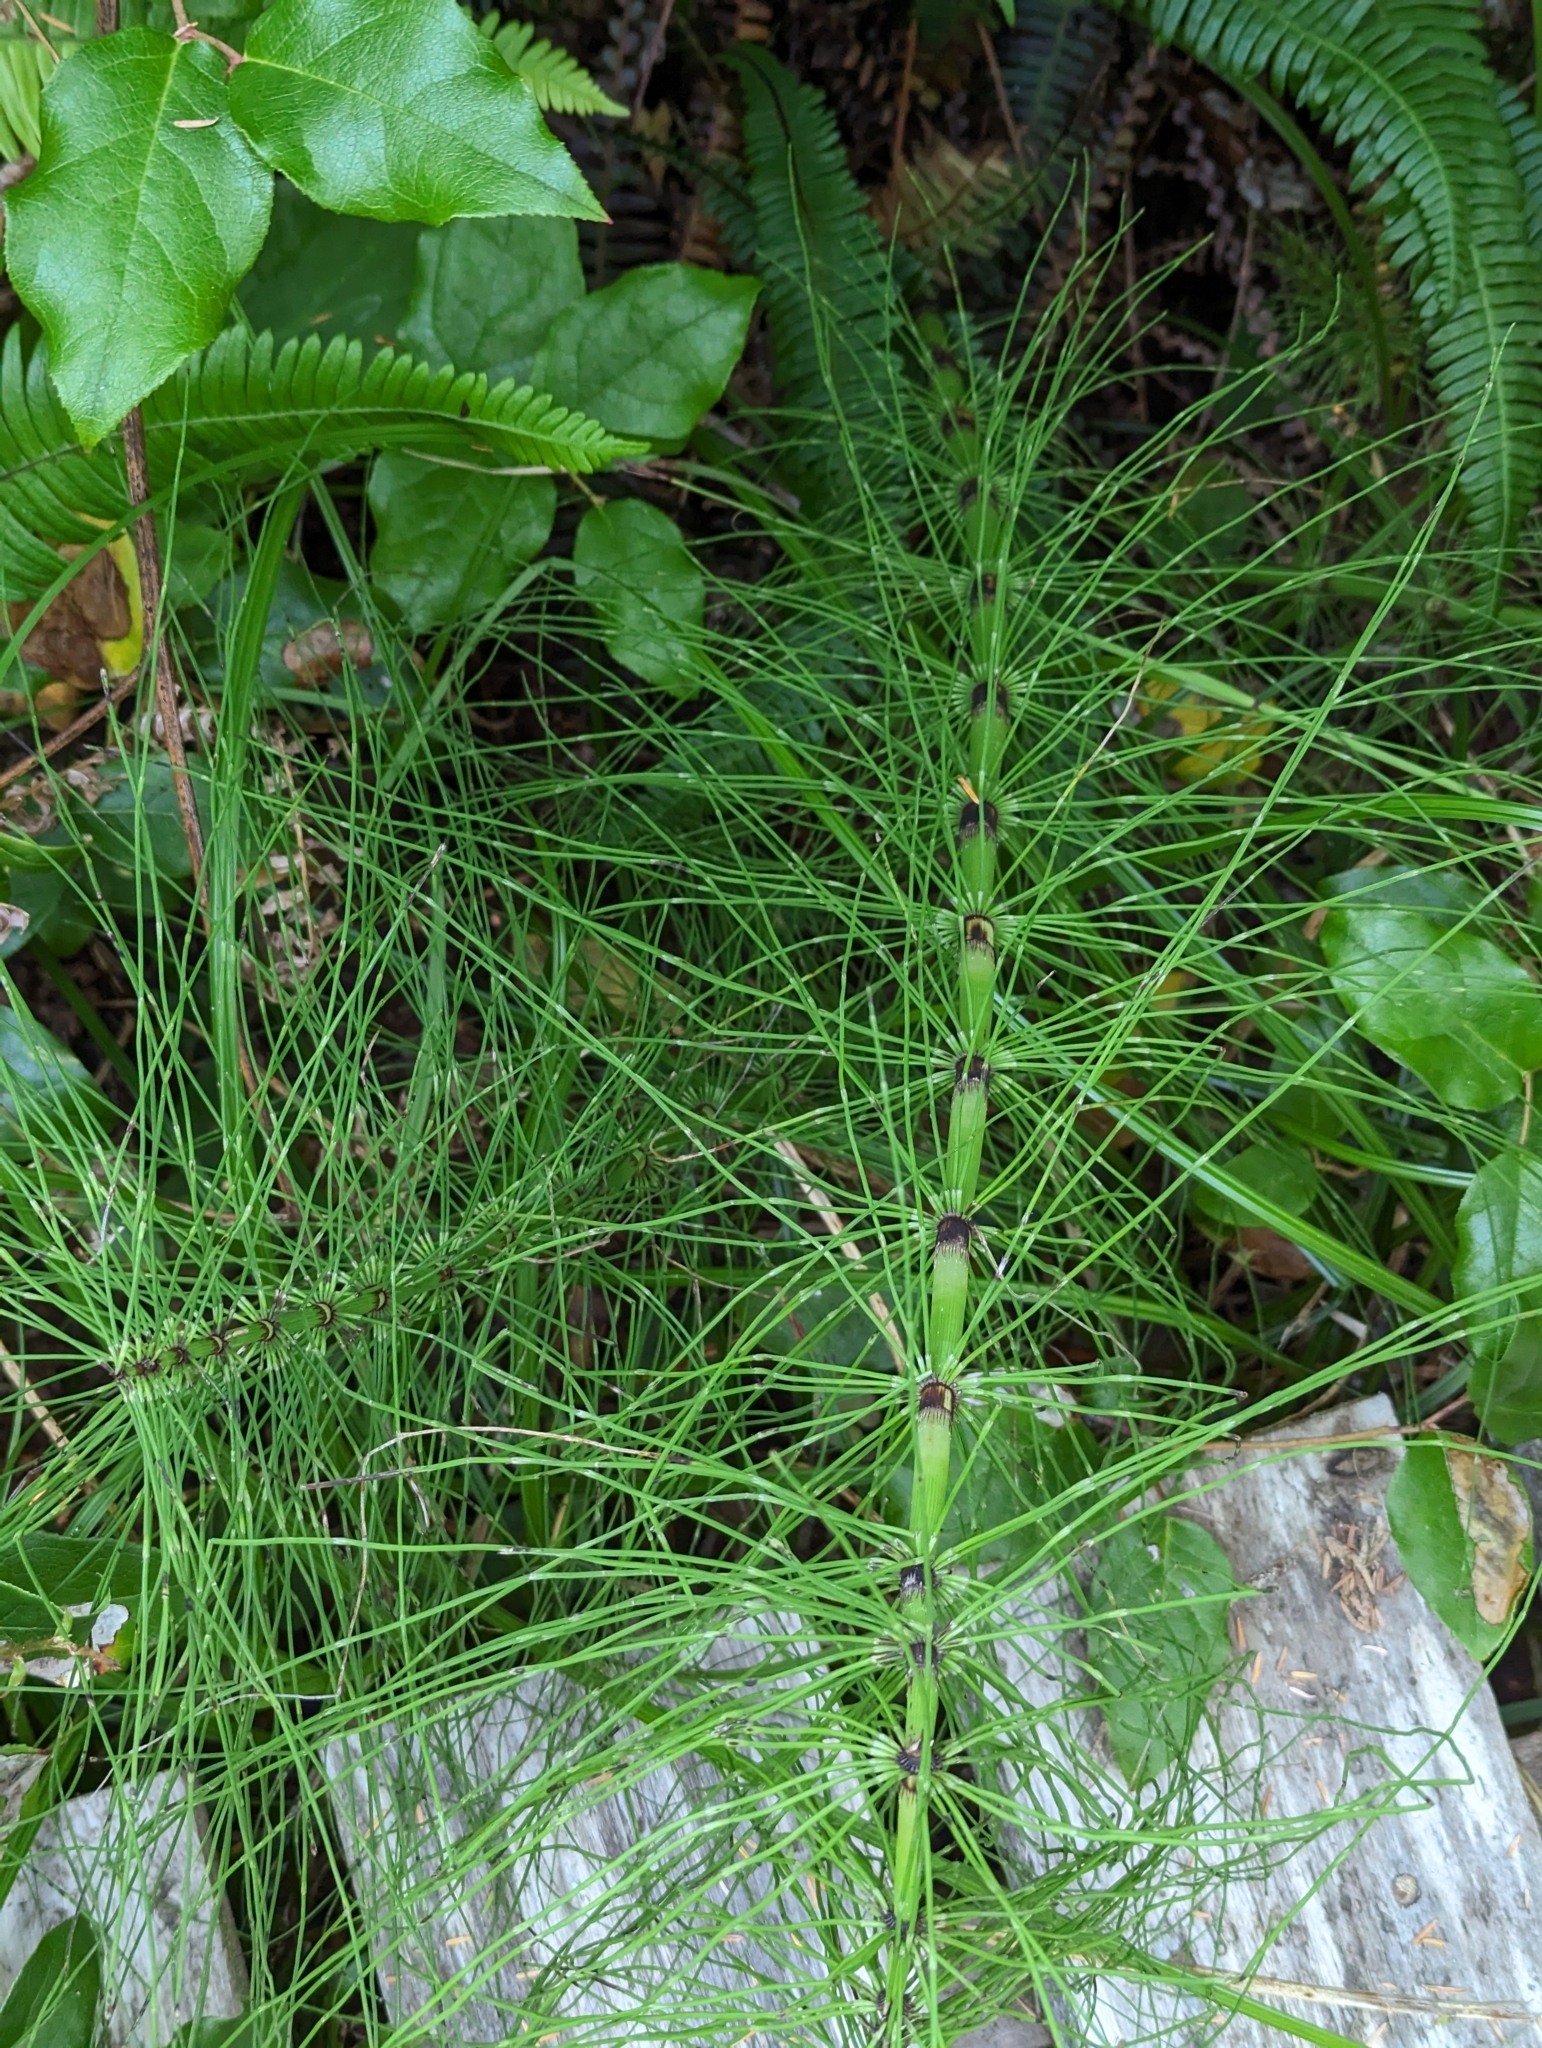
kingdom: Plantae
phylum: Tracheophyta
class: Polypodiopsida
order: Equisetales
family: Equisetaceae
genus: Equisetum
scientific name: Equisetum braunii
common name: Braun's horsetail
